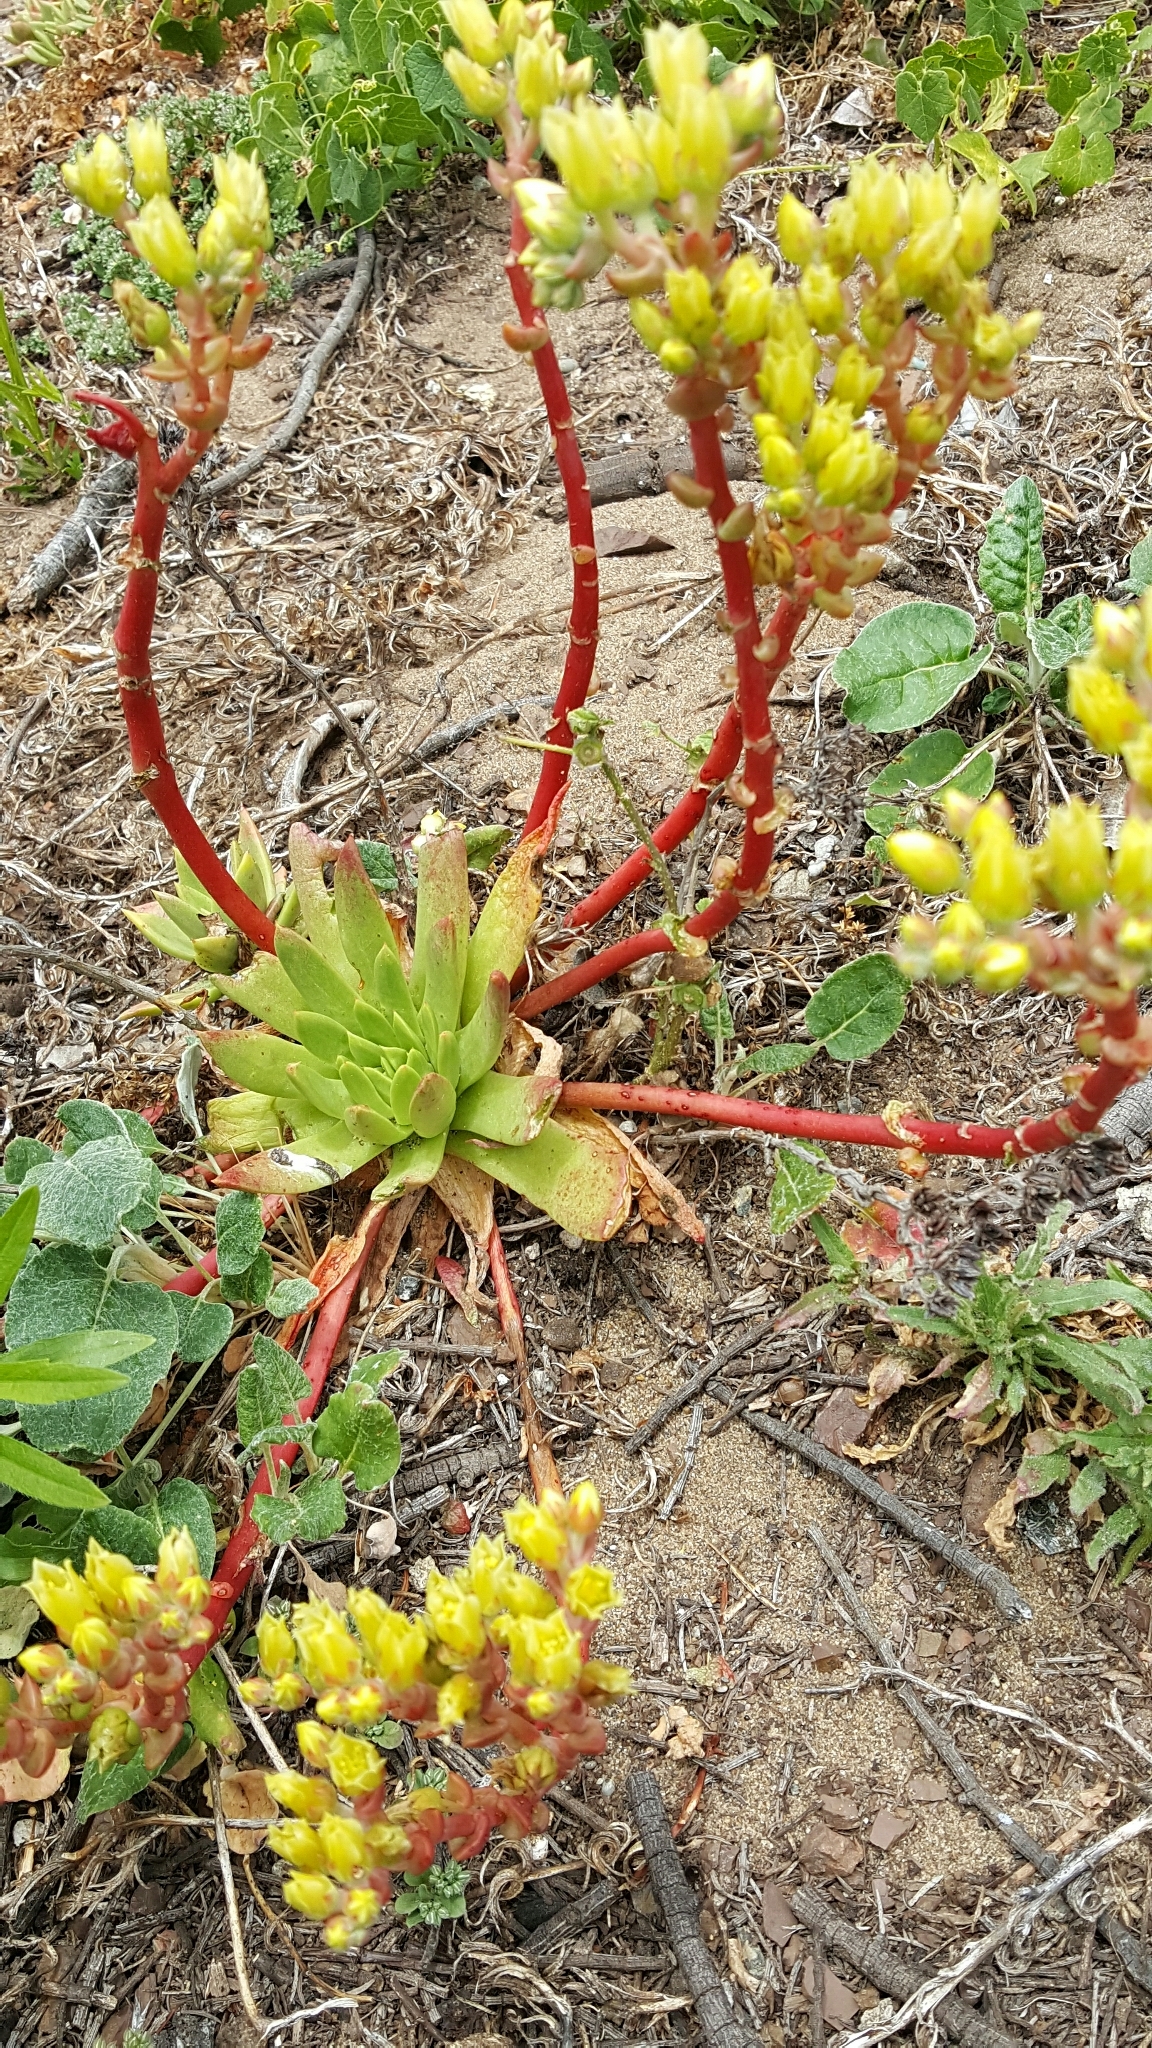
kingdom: Plantae
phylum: Tracheophyta
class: Magnoliopsida
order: Saxifragales
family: Crassulaceae
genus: Dudleya
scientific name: Dudleya farinosa
